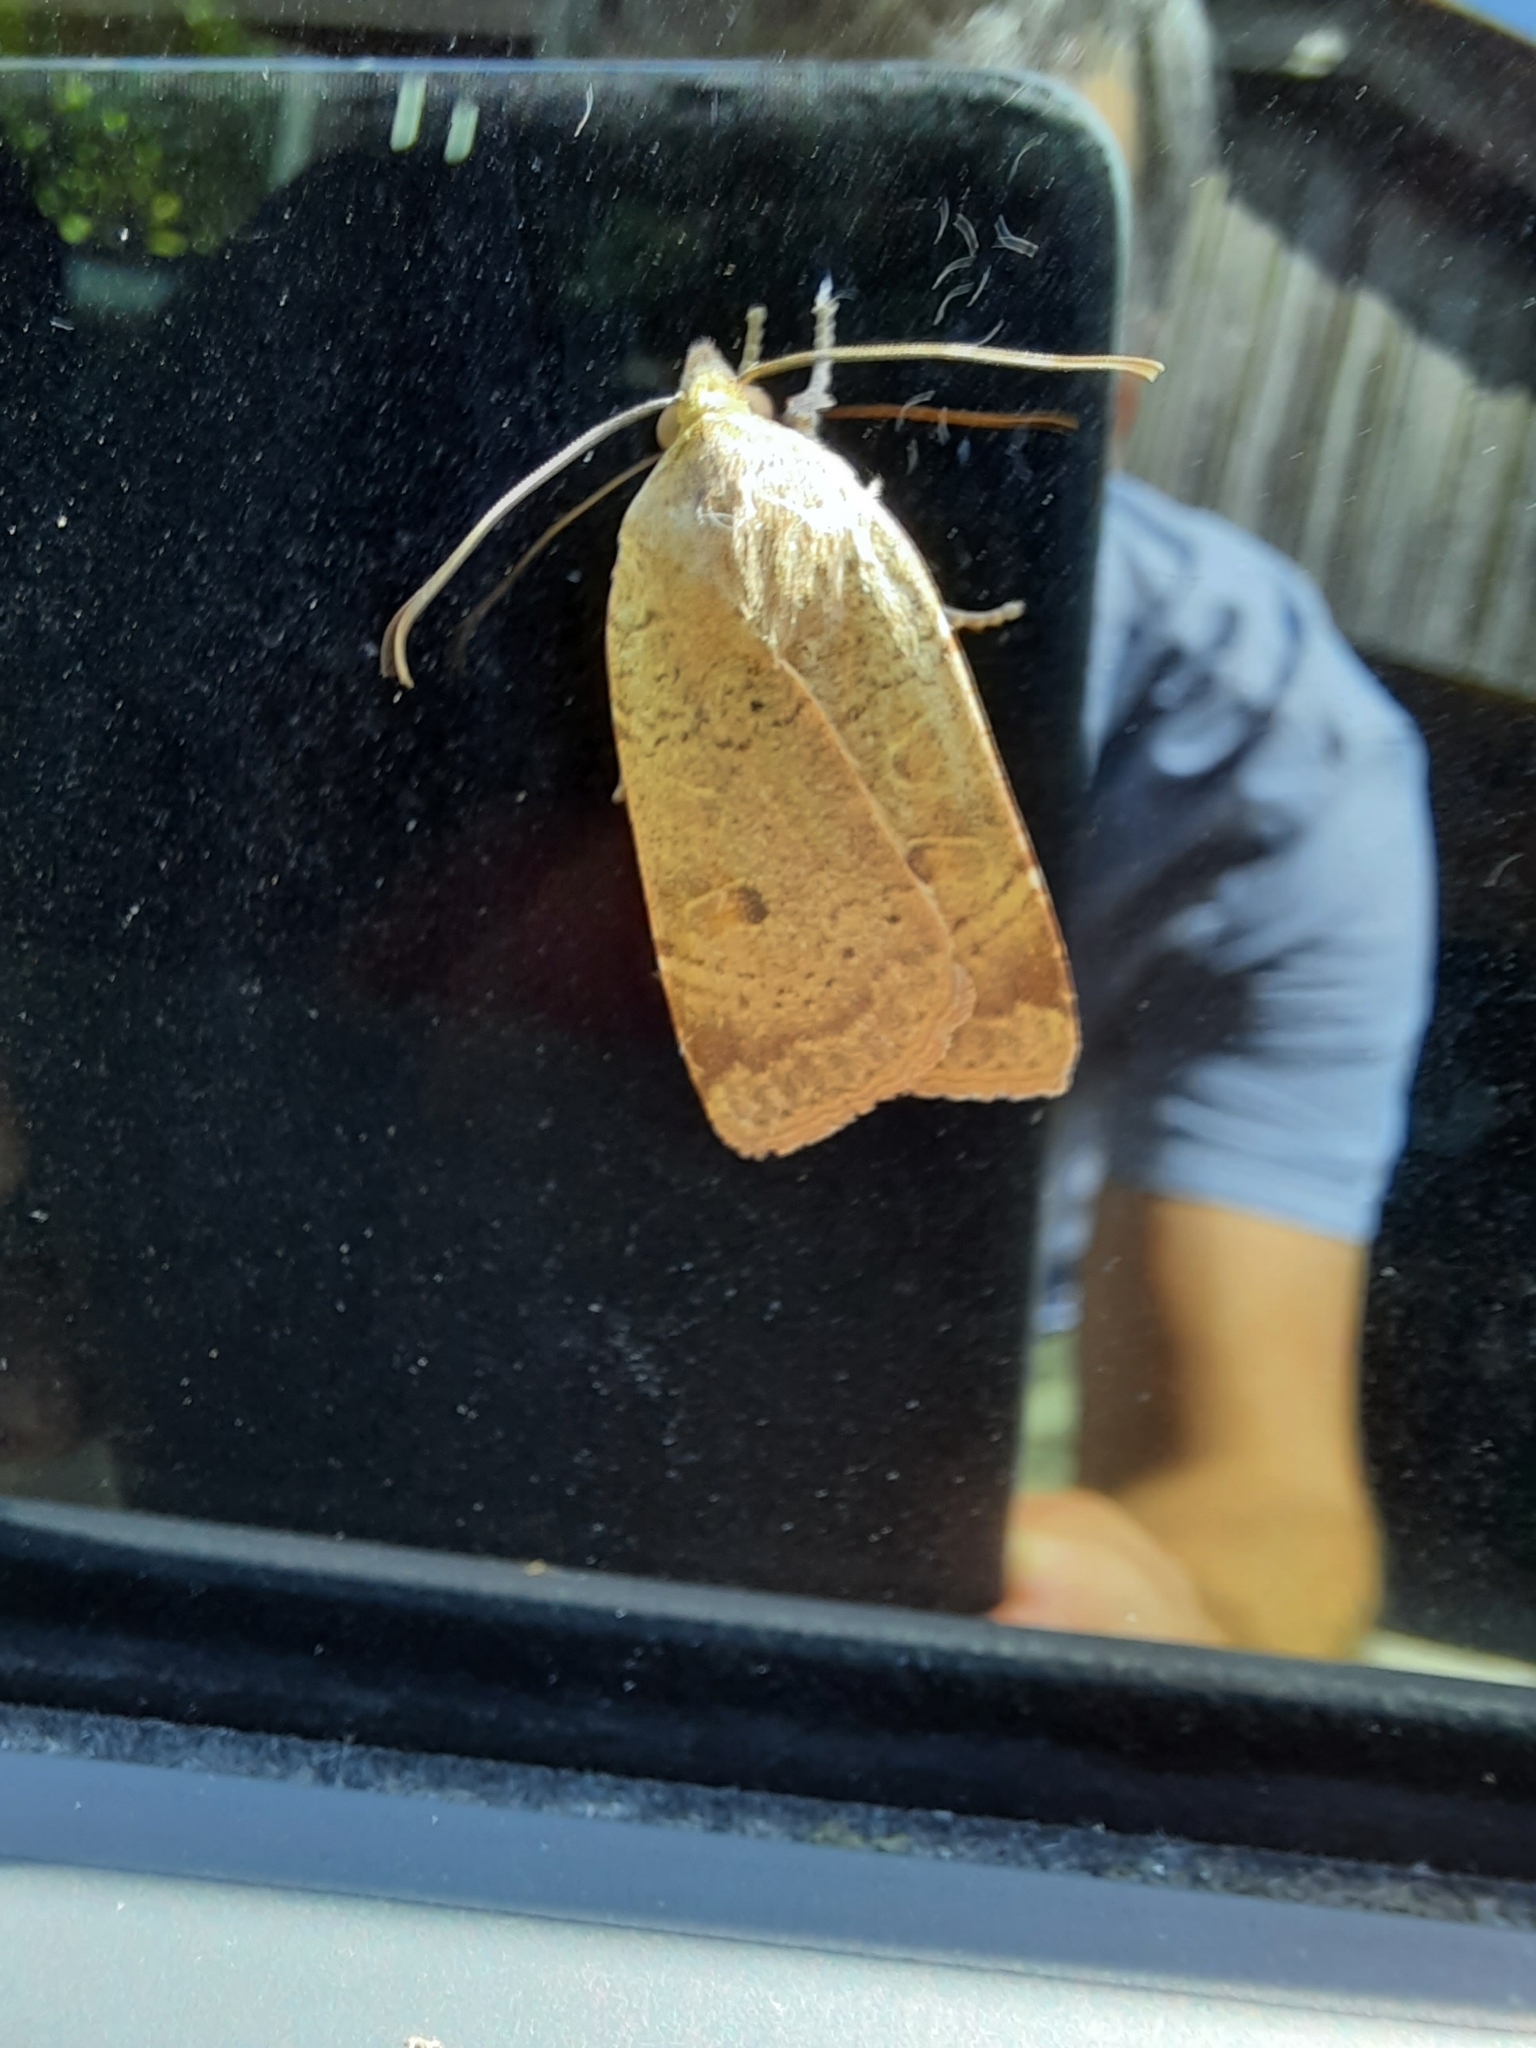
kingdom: Animalia
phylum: Arthropoda
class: Insecta
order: Lepidoptera
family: Noctuidae
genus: Noctua
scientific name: Noctua comes
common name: Lesser yellow underwing
